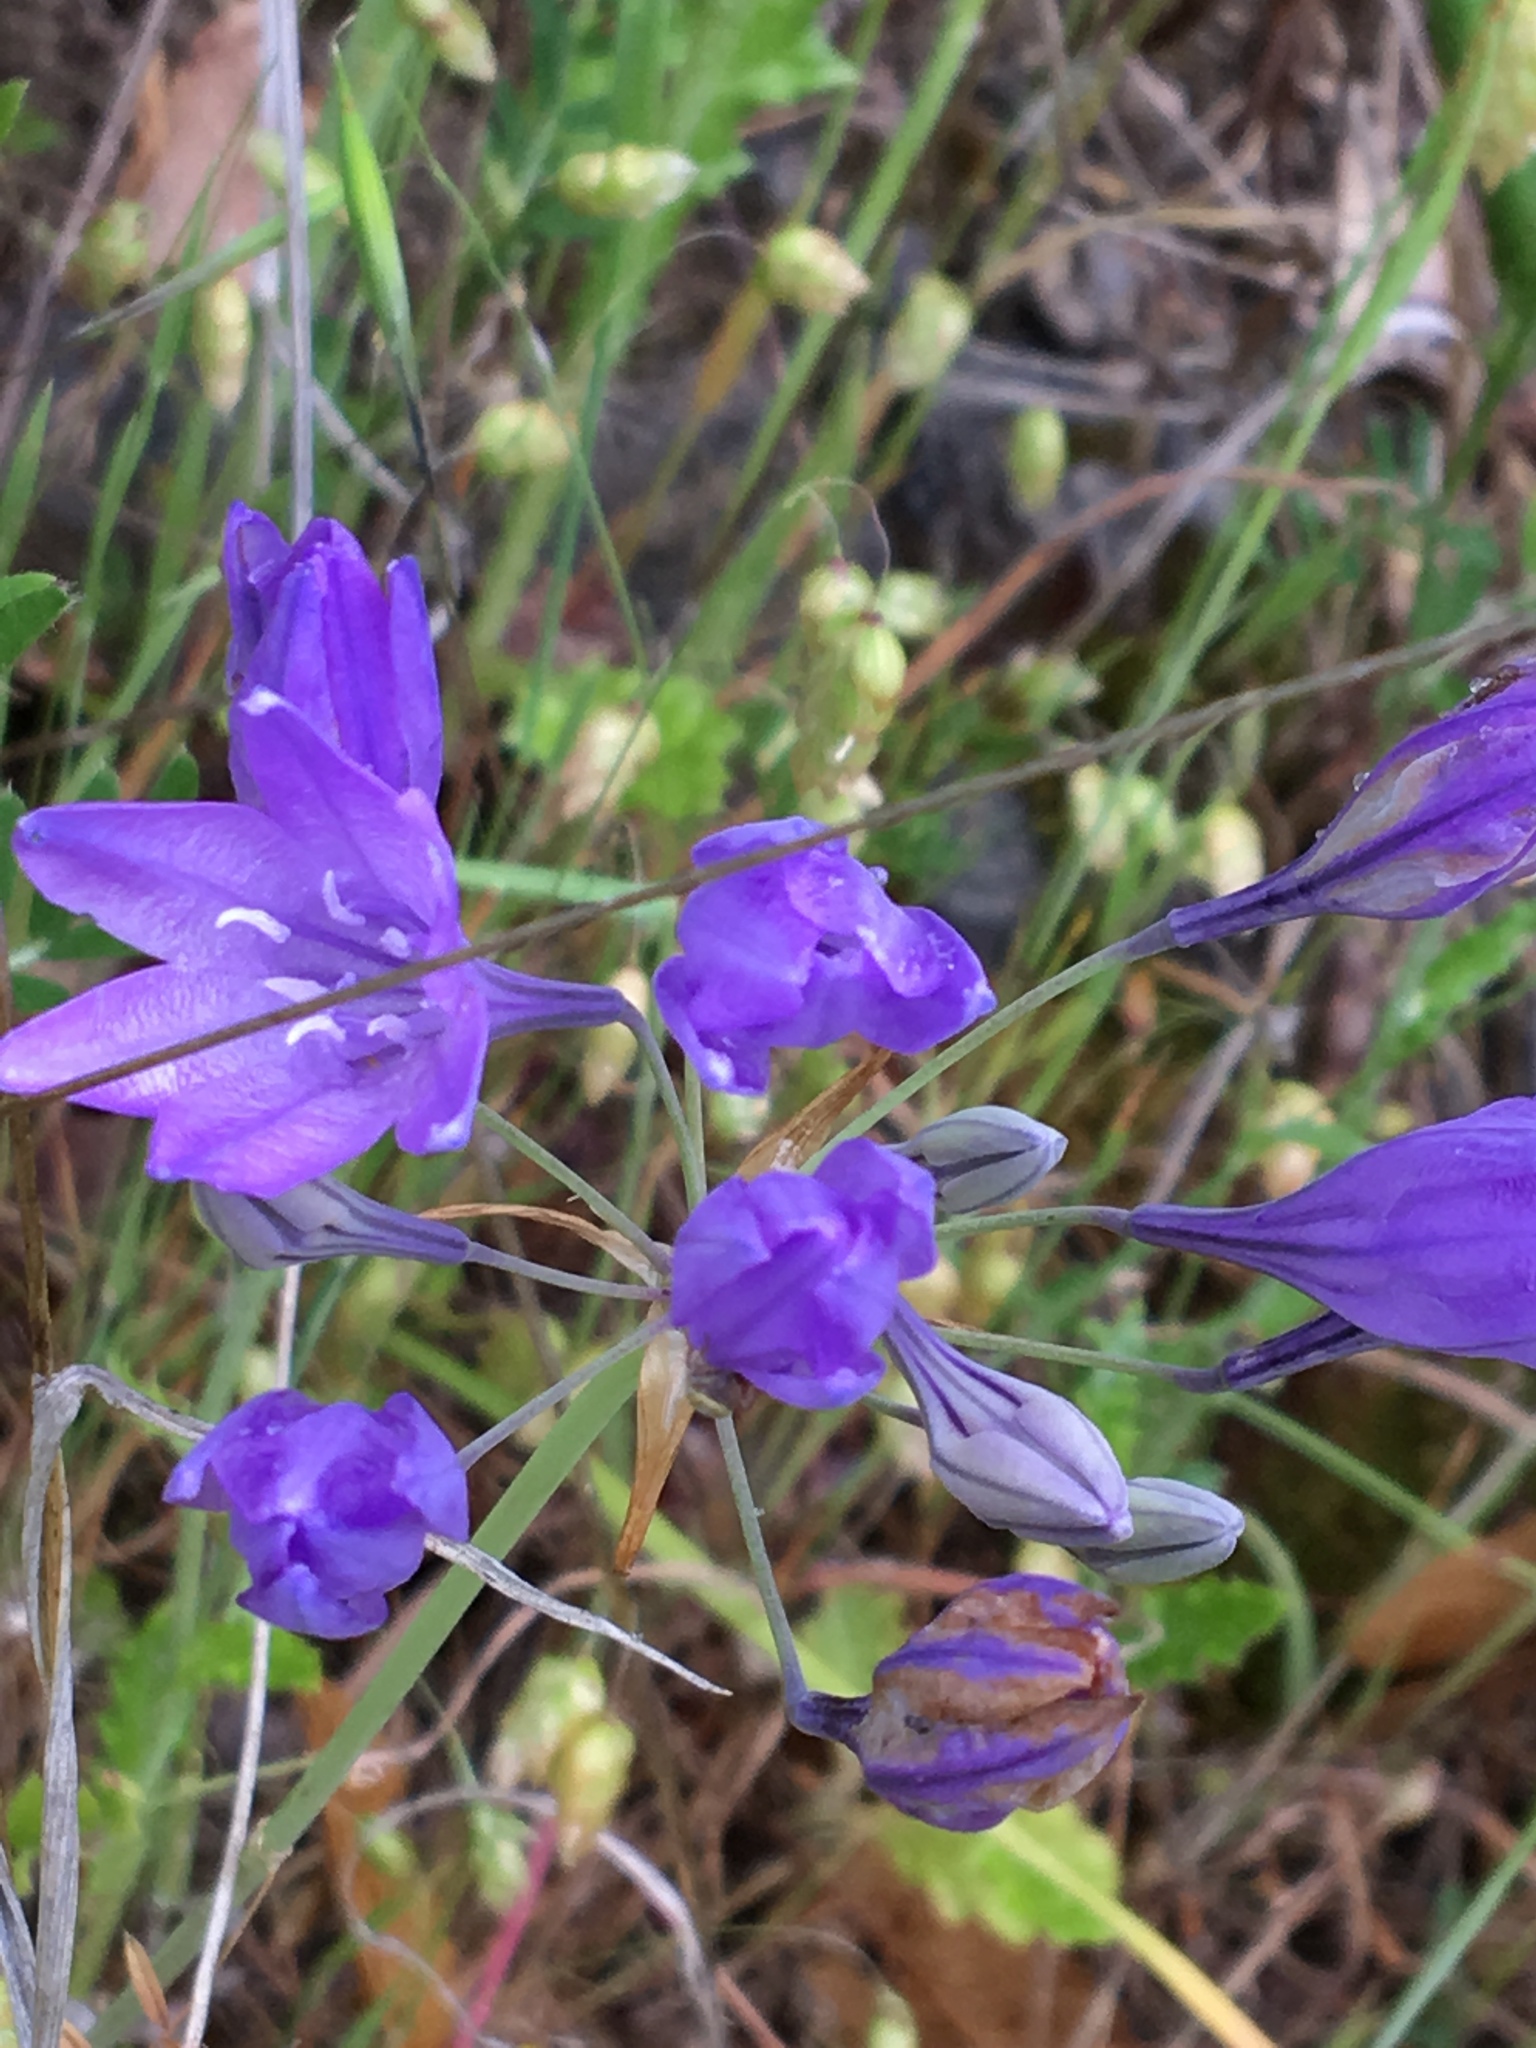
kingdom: Plantae
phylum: Tracheophyta
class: Liliopsida
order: Asparagales
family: Asparagaceae
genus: Triteleia
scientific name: Triteleia laxa
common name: Triplet-lily
